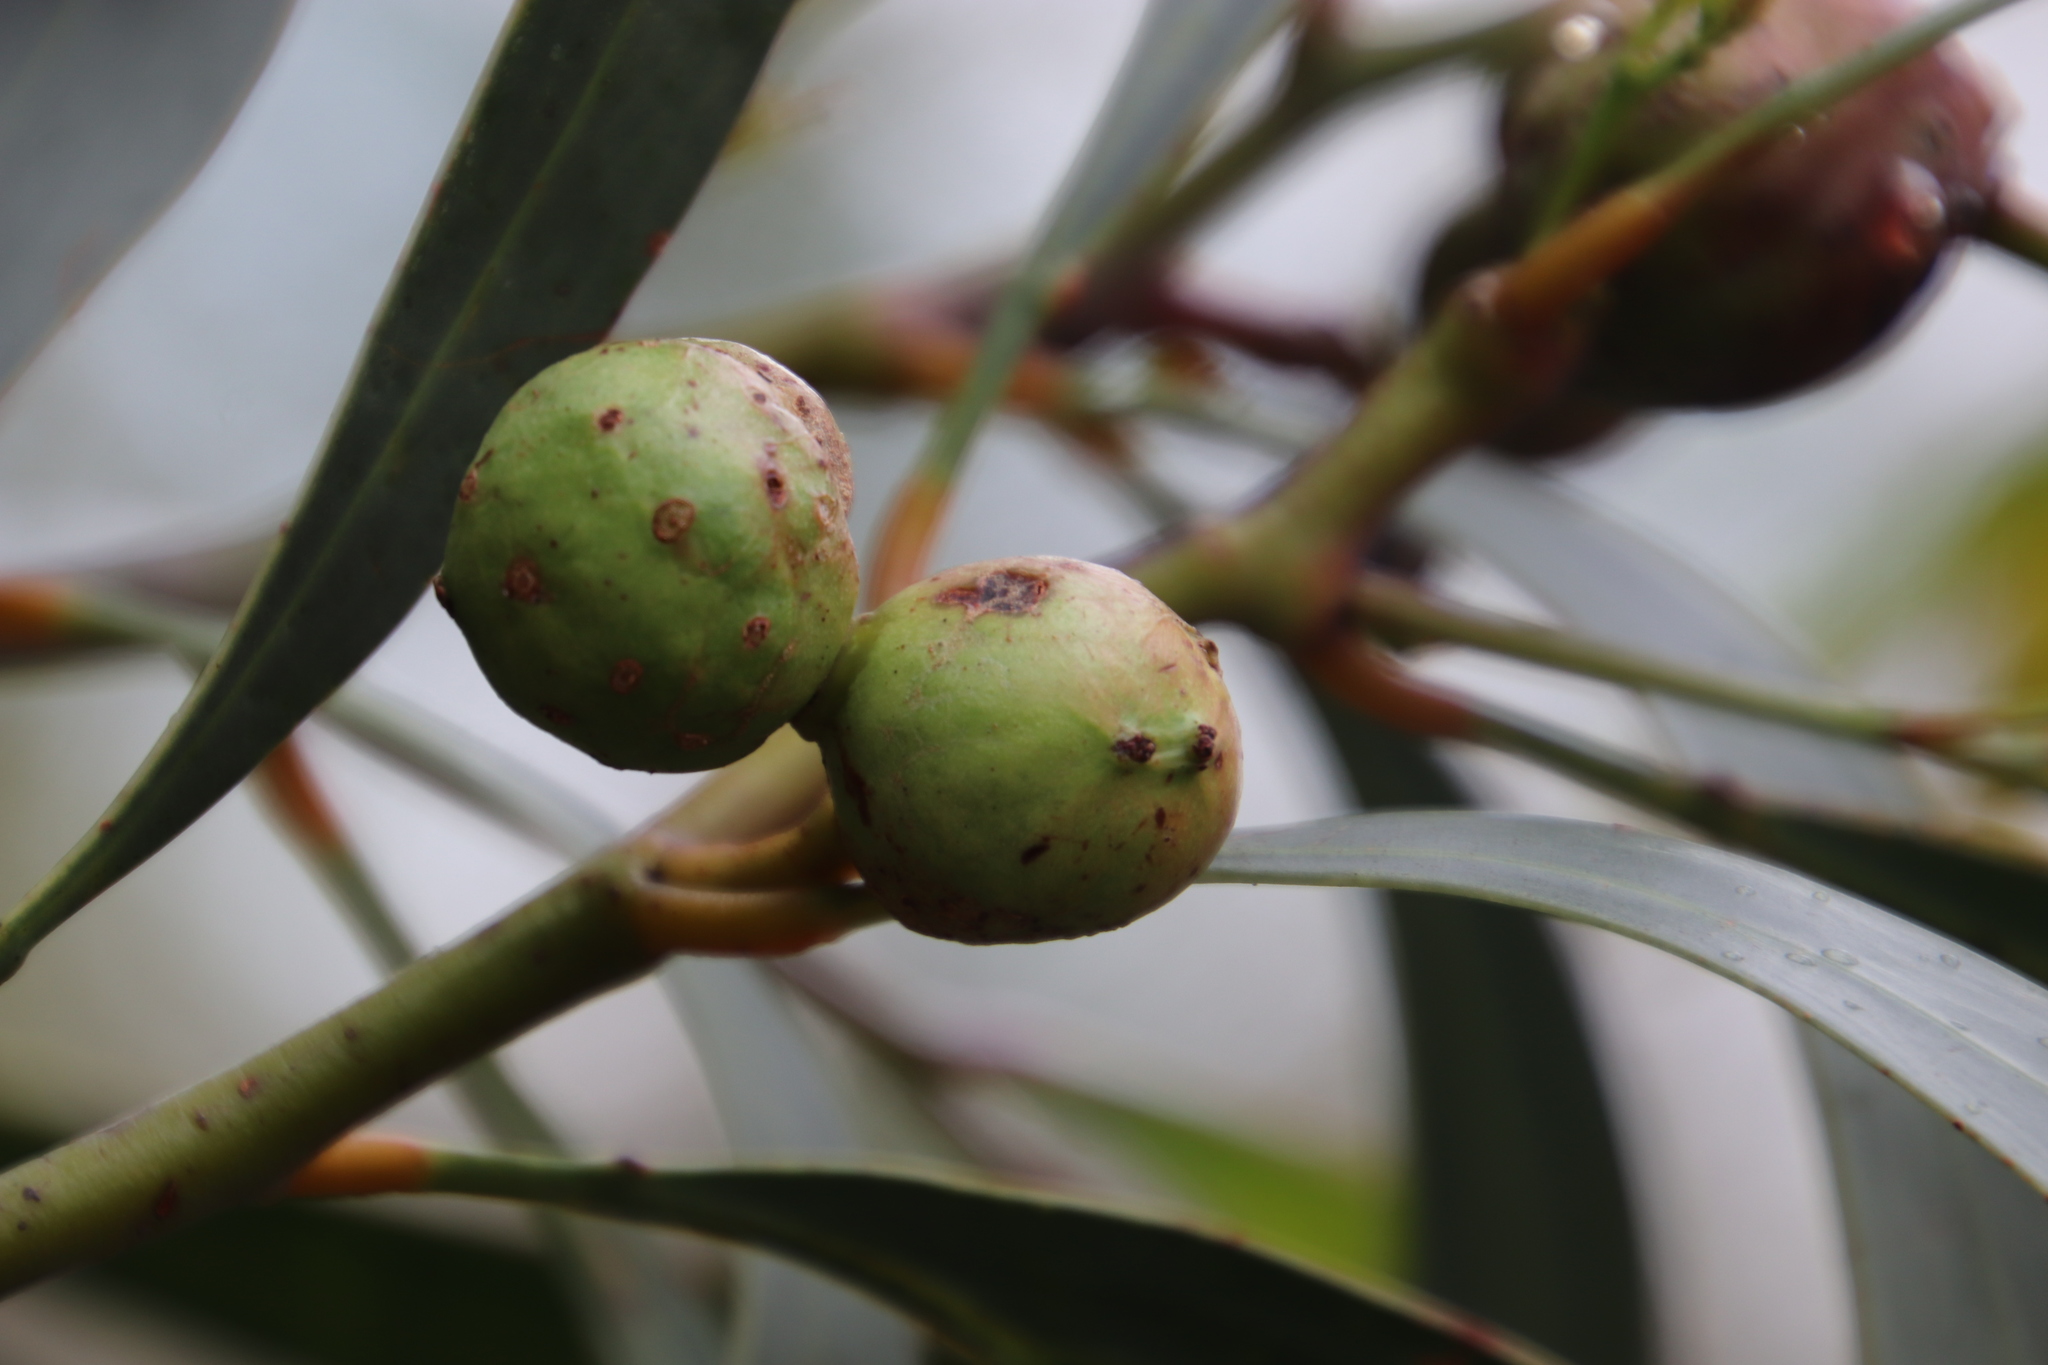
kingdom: Animalia
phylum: Arthropoda
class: Insecta
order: Hymenoptera
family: Pteromalidae
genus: Trichilogaster
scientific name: Trichilogaster signiventris
